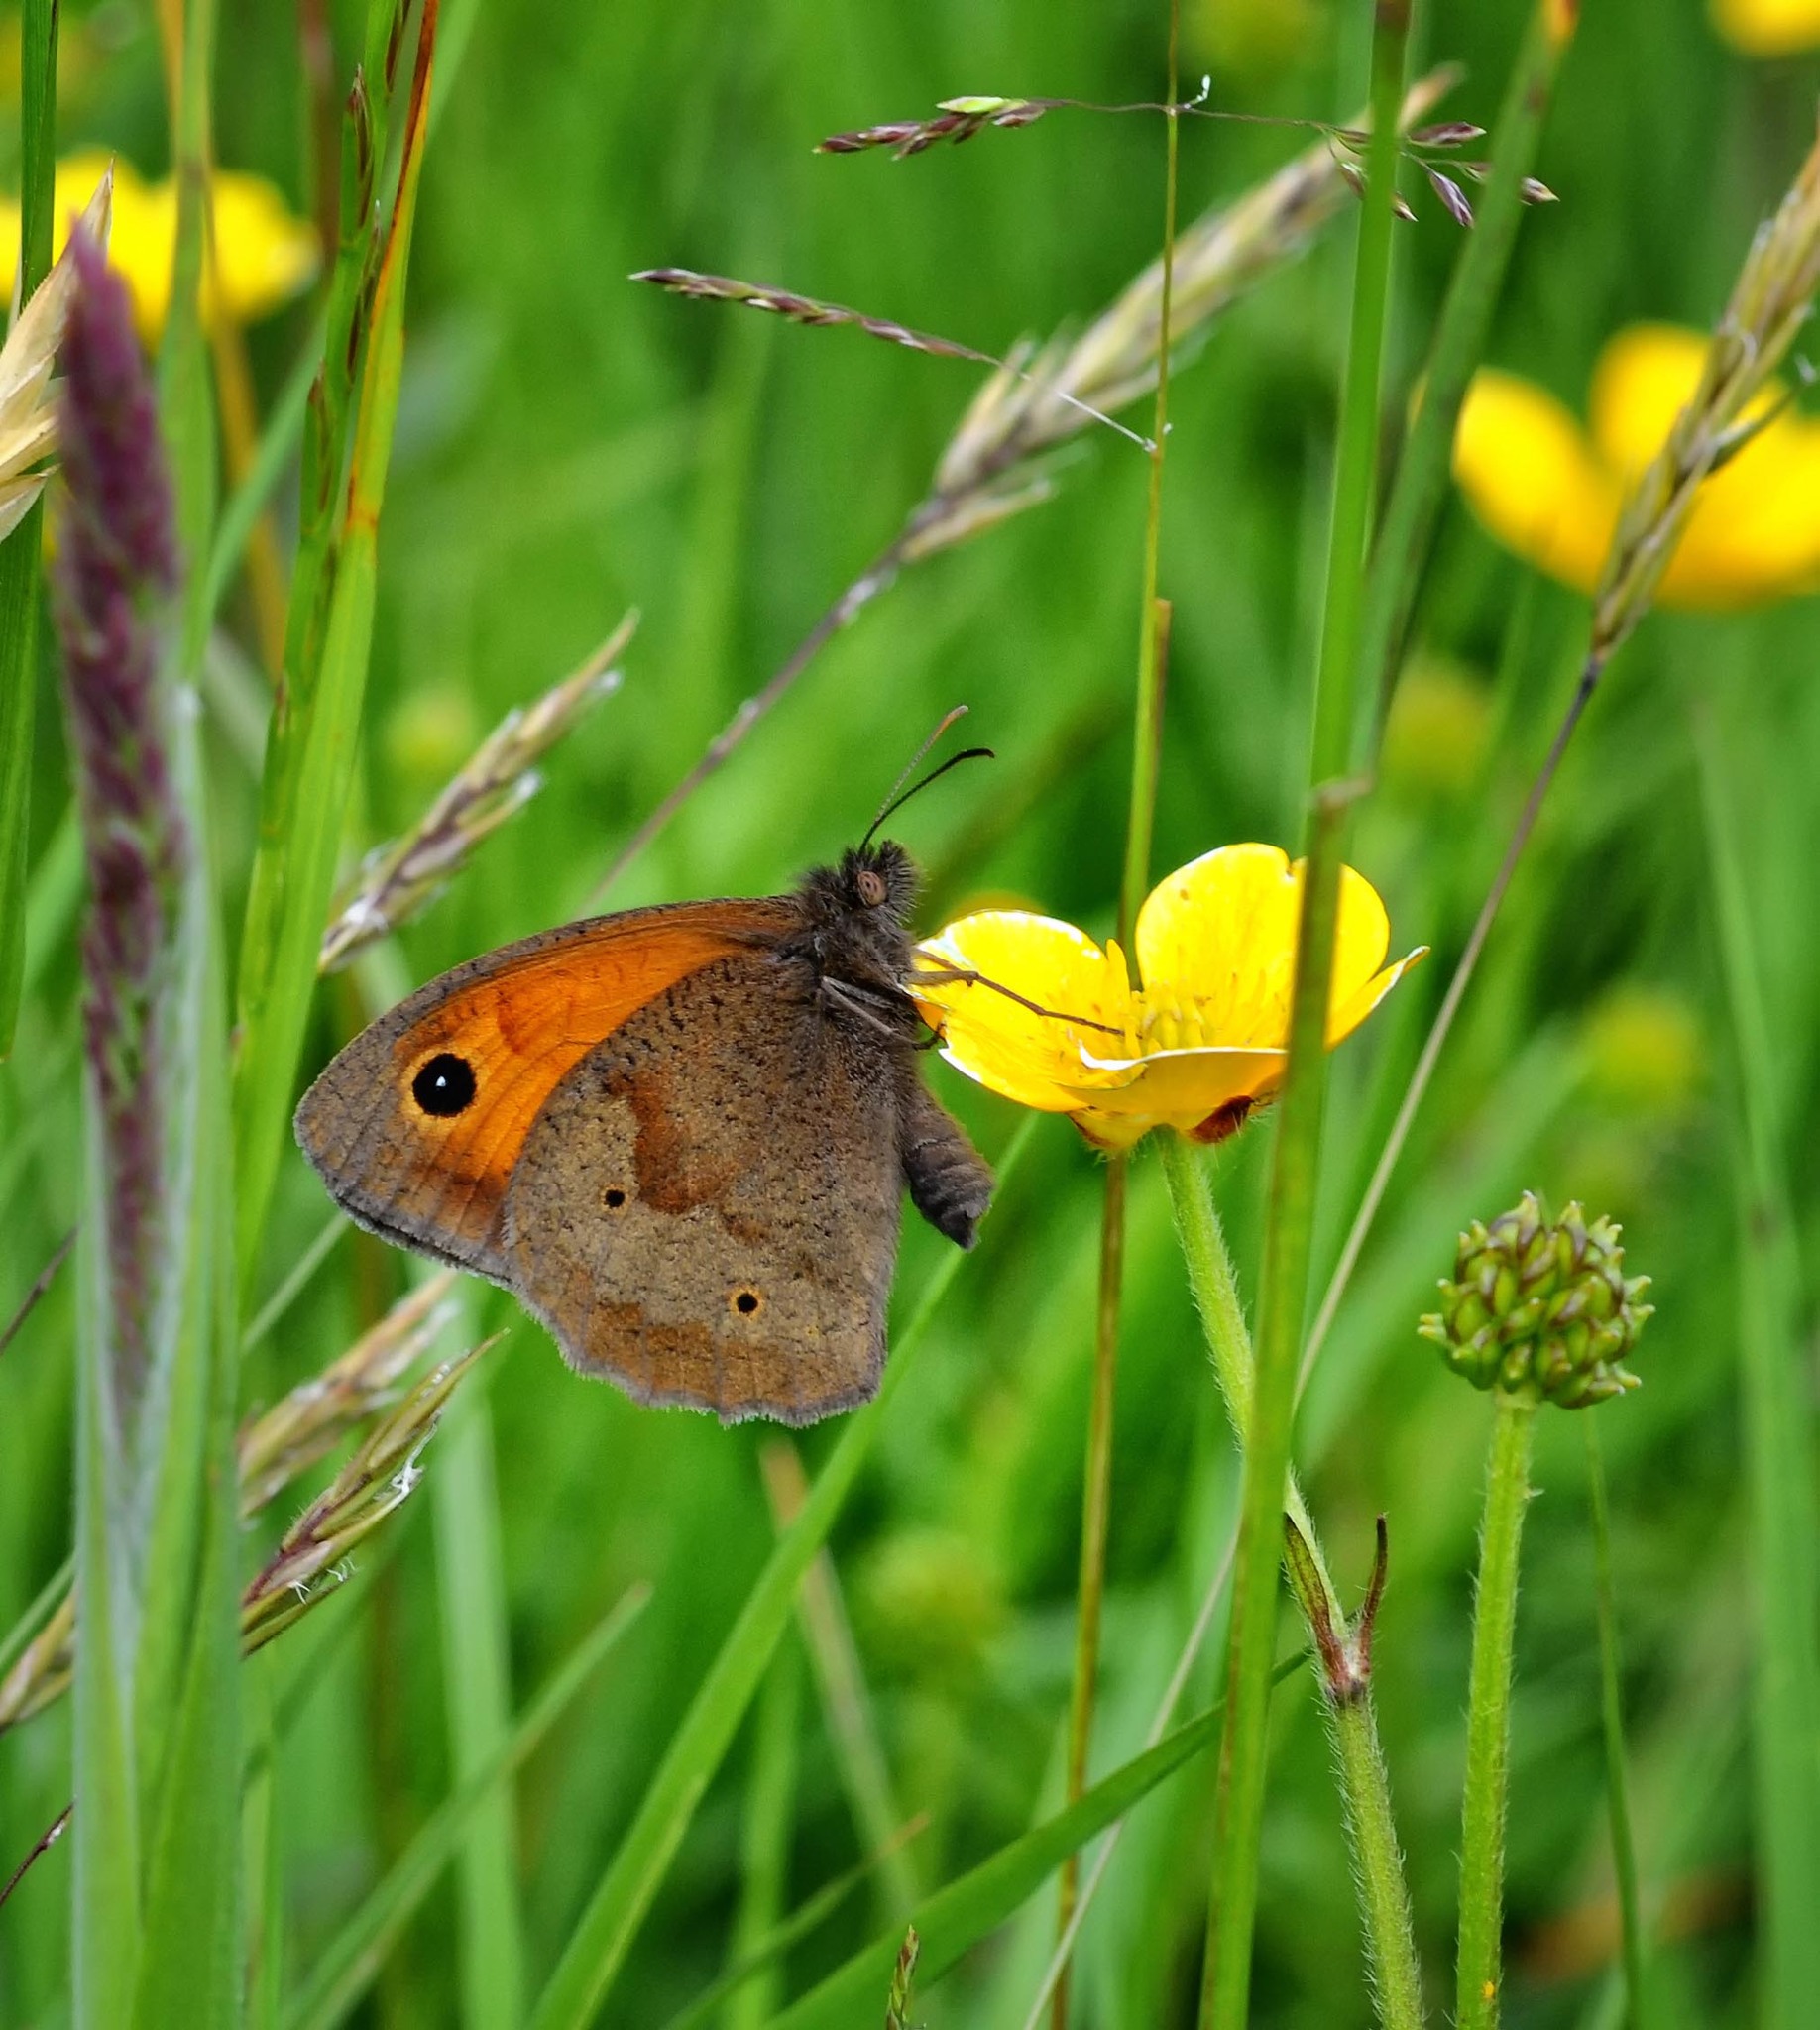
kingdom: Animalia
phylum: Arthropoda
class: Insecta
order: Lepidoptera
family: Nymphalidae
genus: Maniola
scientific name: Maniola jurtina
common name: Meadow brown
